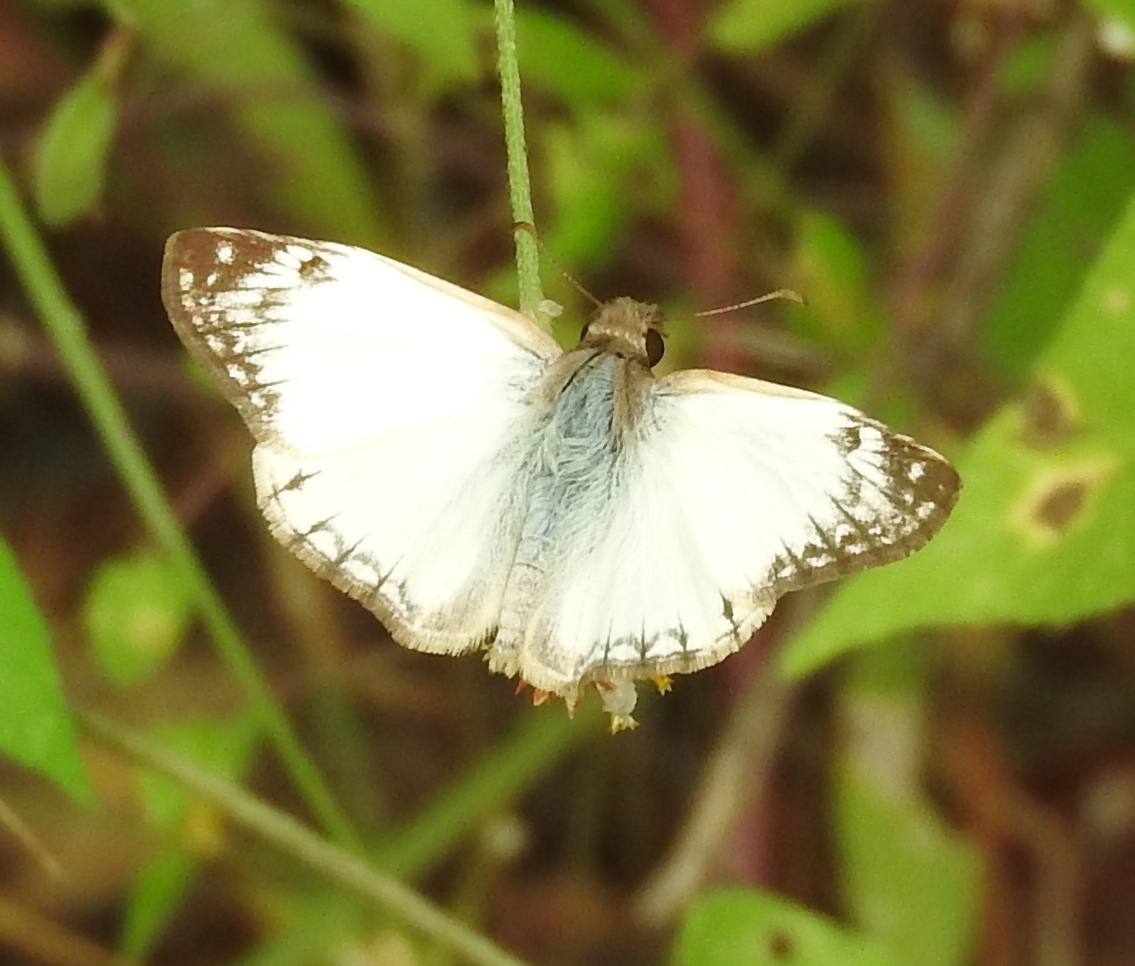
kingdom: Animalia
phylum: Arthropoda
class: Insecta
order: Lepidoptera
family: Hesperiidae
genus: Heliopetes
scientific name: Heliopetes laviana
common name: Laviana white-skipper
